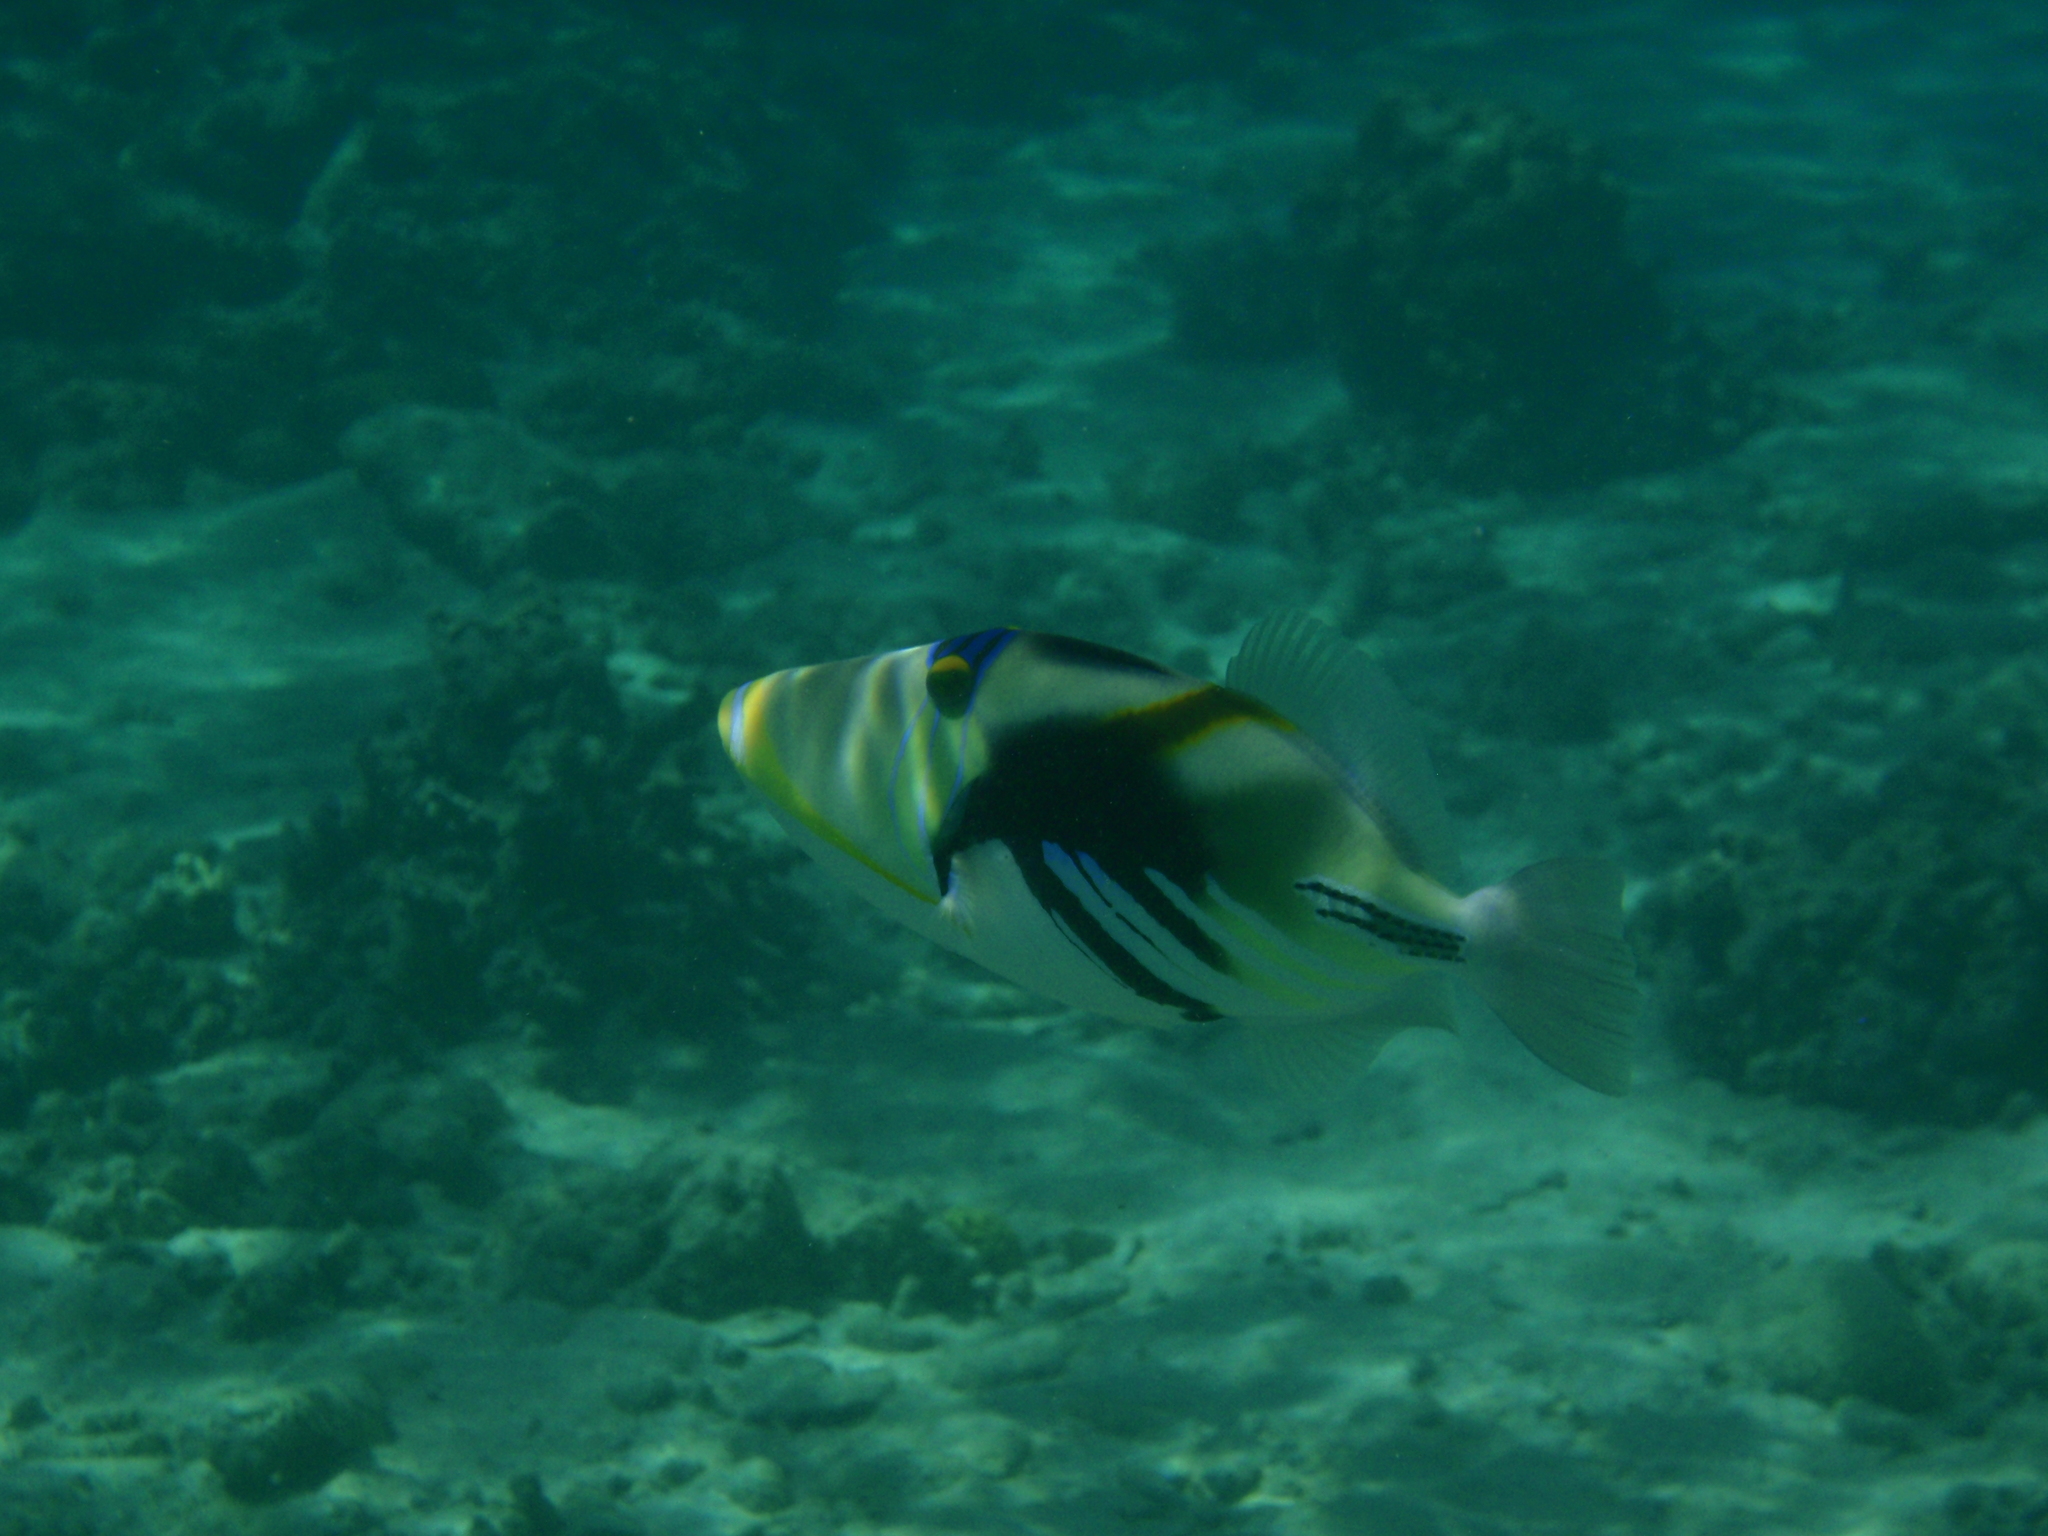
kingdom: Animalia
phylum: Chordata
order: Tetraodontiformes
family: Balistidae
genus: Rhinecanthus
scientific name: Rhinecanthus aculeatus
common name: White-banded triggerfish
